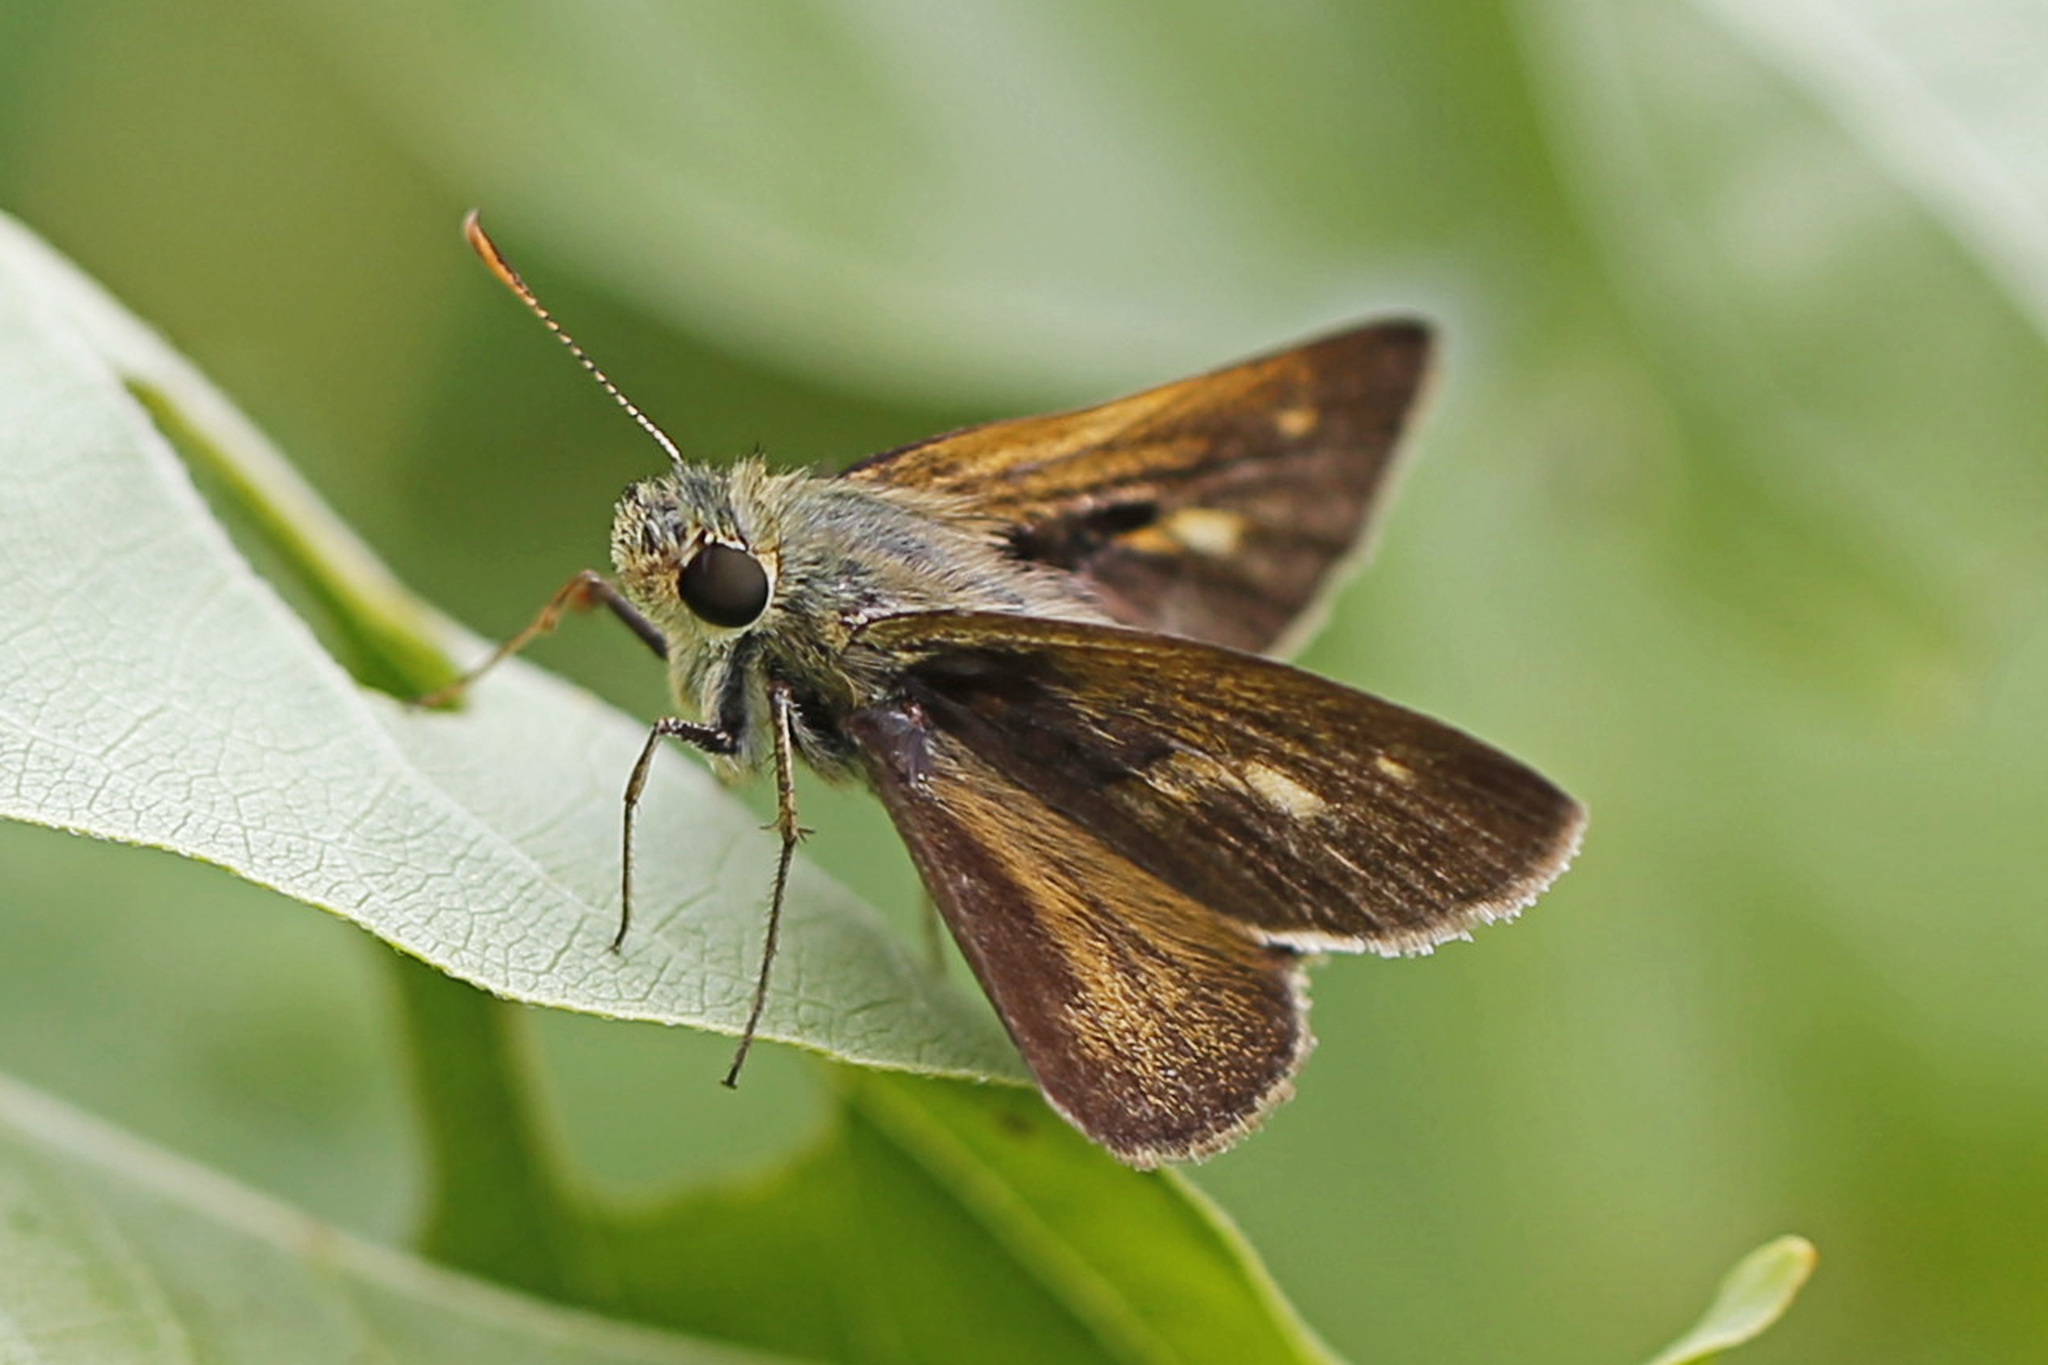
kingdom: Animalia
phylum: Arthropoda
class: Insecta
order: Lepidoptera
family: Hesperiidae
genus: Polites
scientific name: Polites themistocles
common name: Tawny-edged skipper
